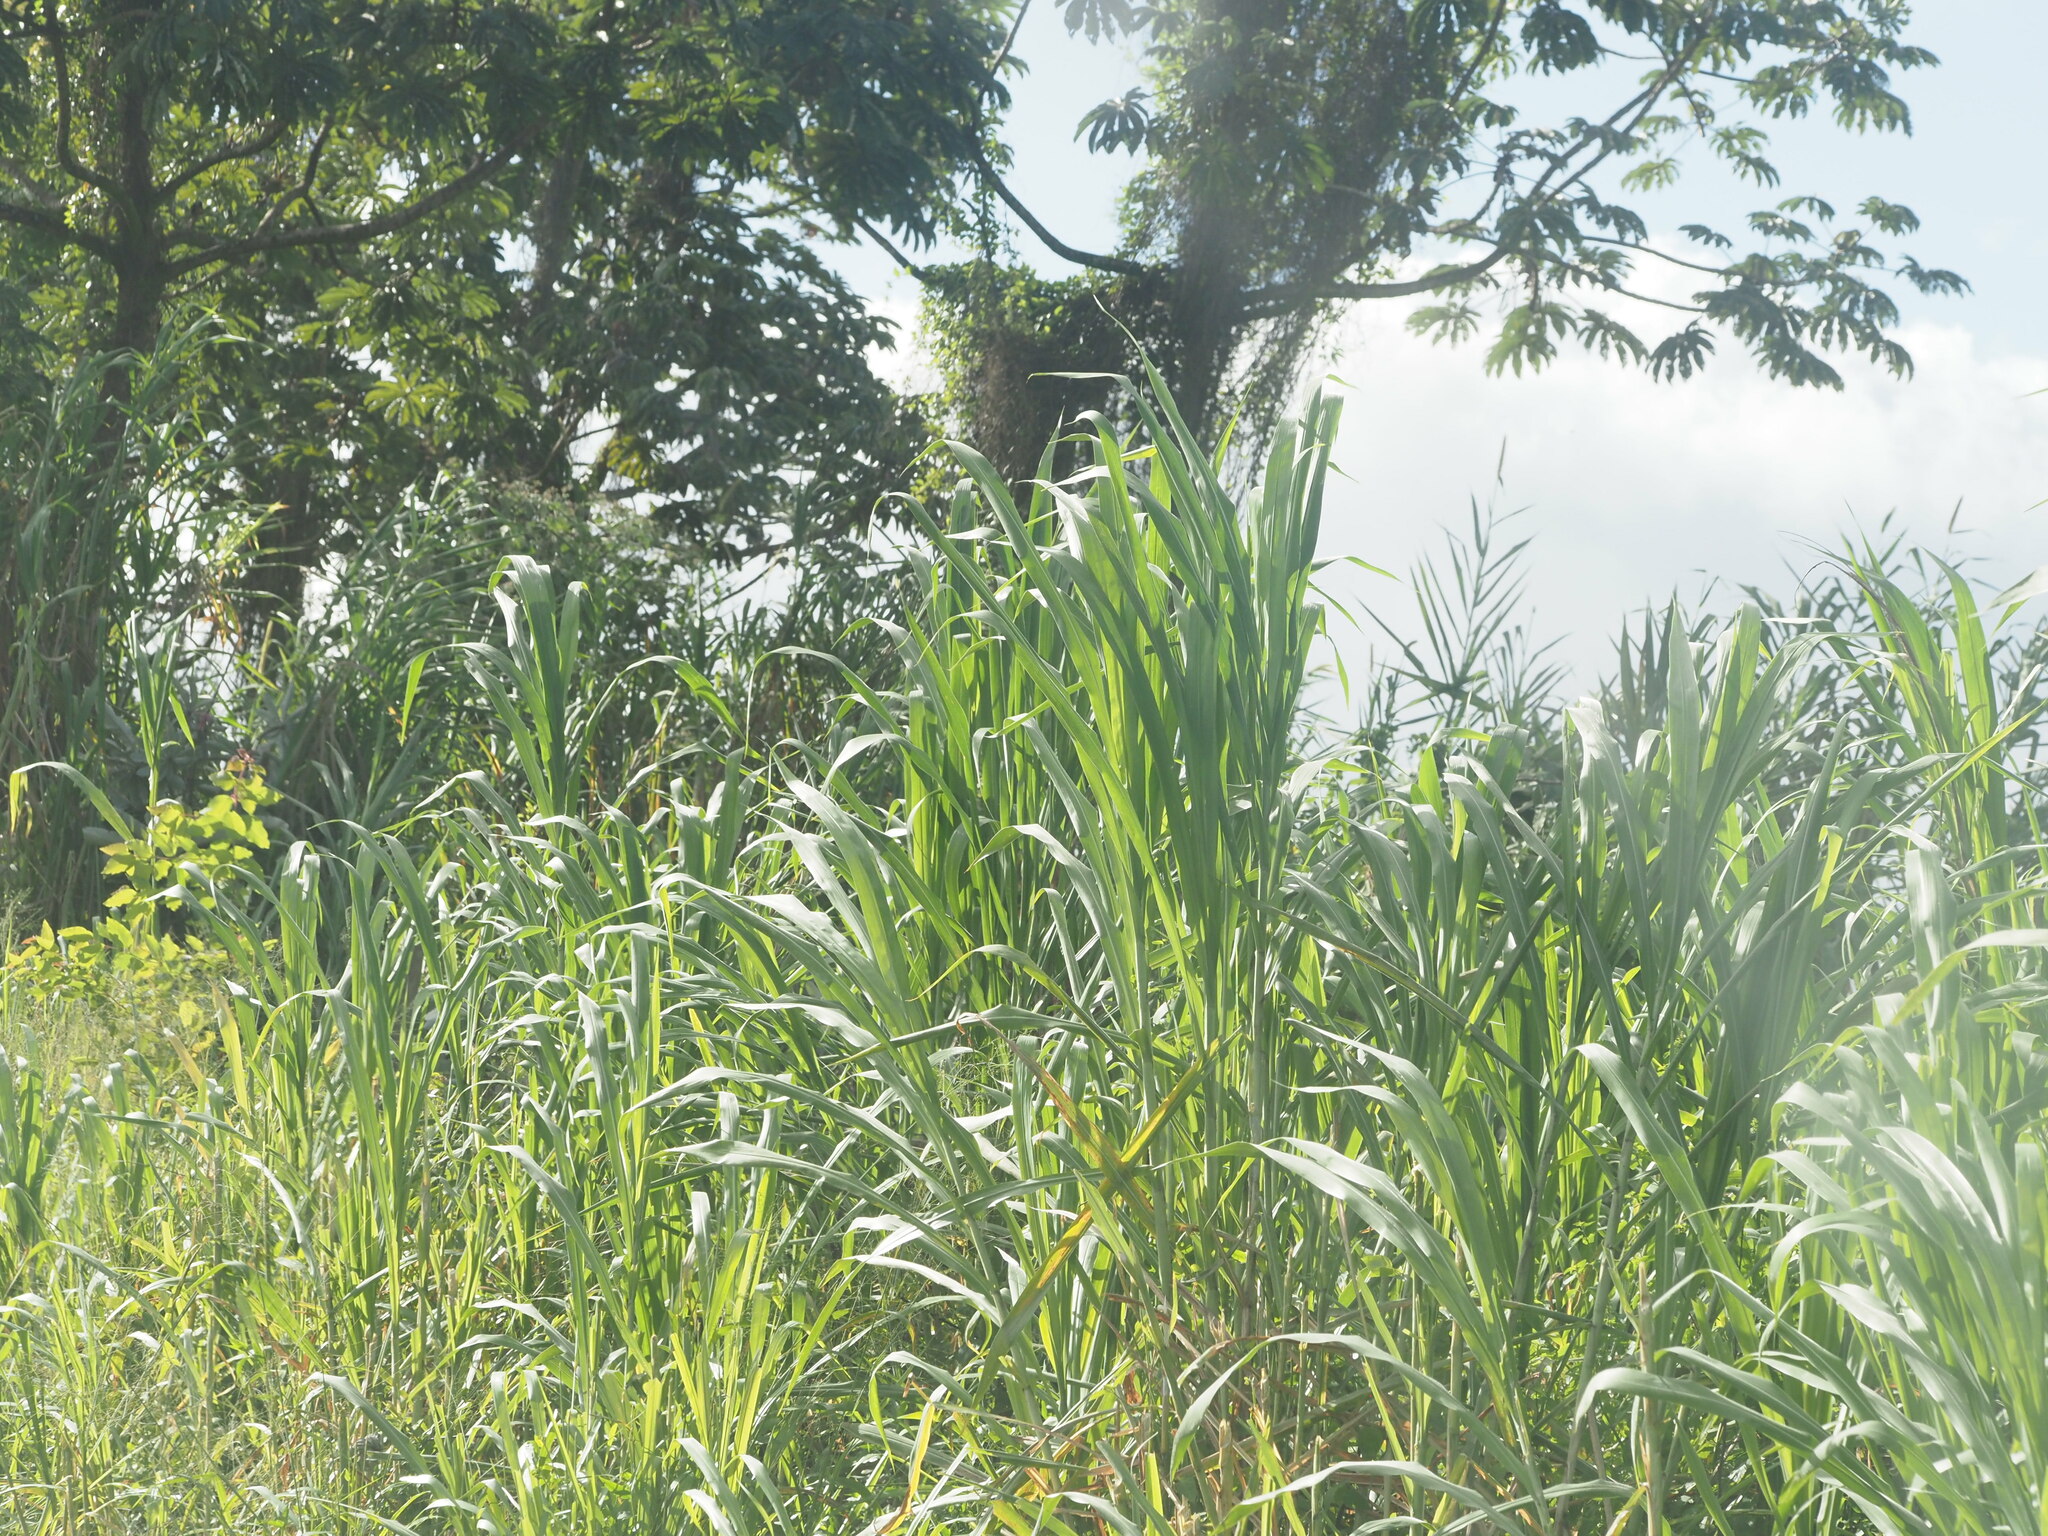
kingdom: Plantae
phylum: Tracheophyta
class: Liliopsida
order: Poales
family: Poaceae
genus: Cenchrus
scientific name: Cenchrus purpureus
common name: Elephant grass
